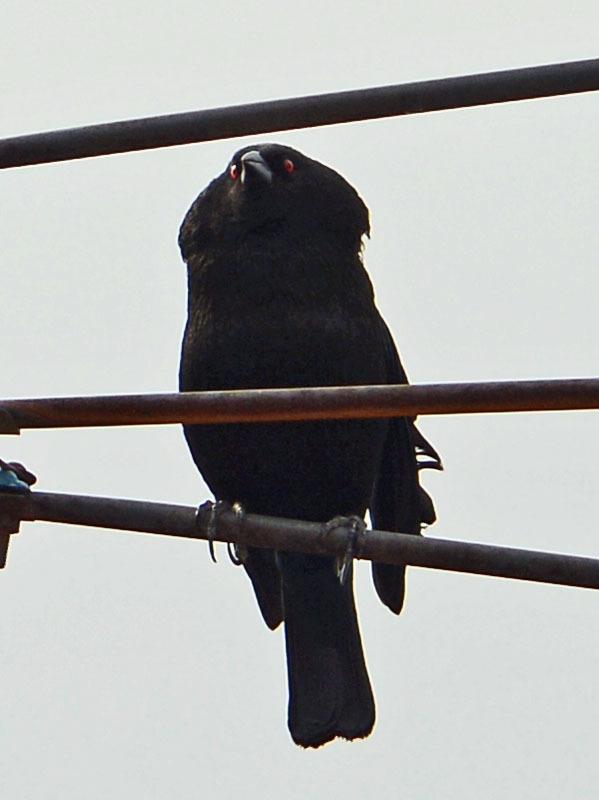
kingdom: Animalia
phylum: Chordata
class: Aves
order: Passeriformes
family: Icteridae
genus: Molothrus
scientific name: Molothrus aeneus
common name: Bronzed cowbird
